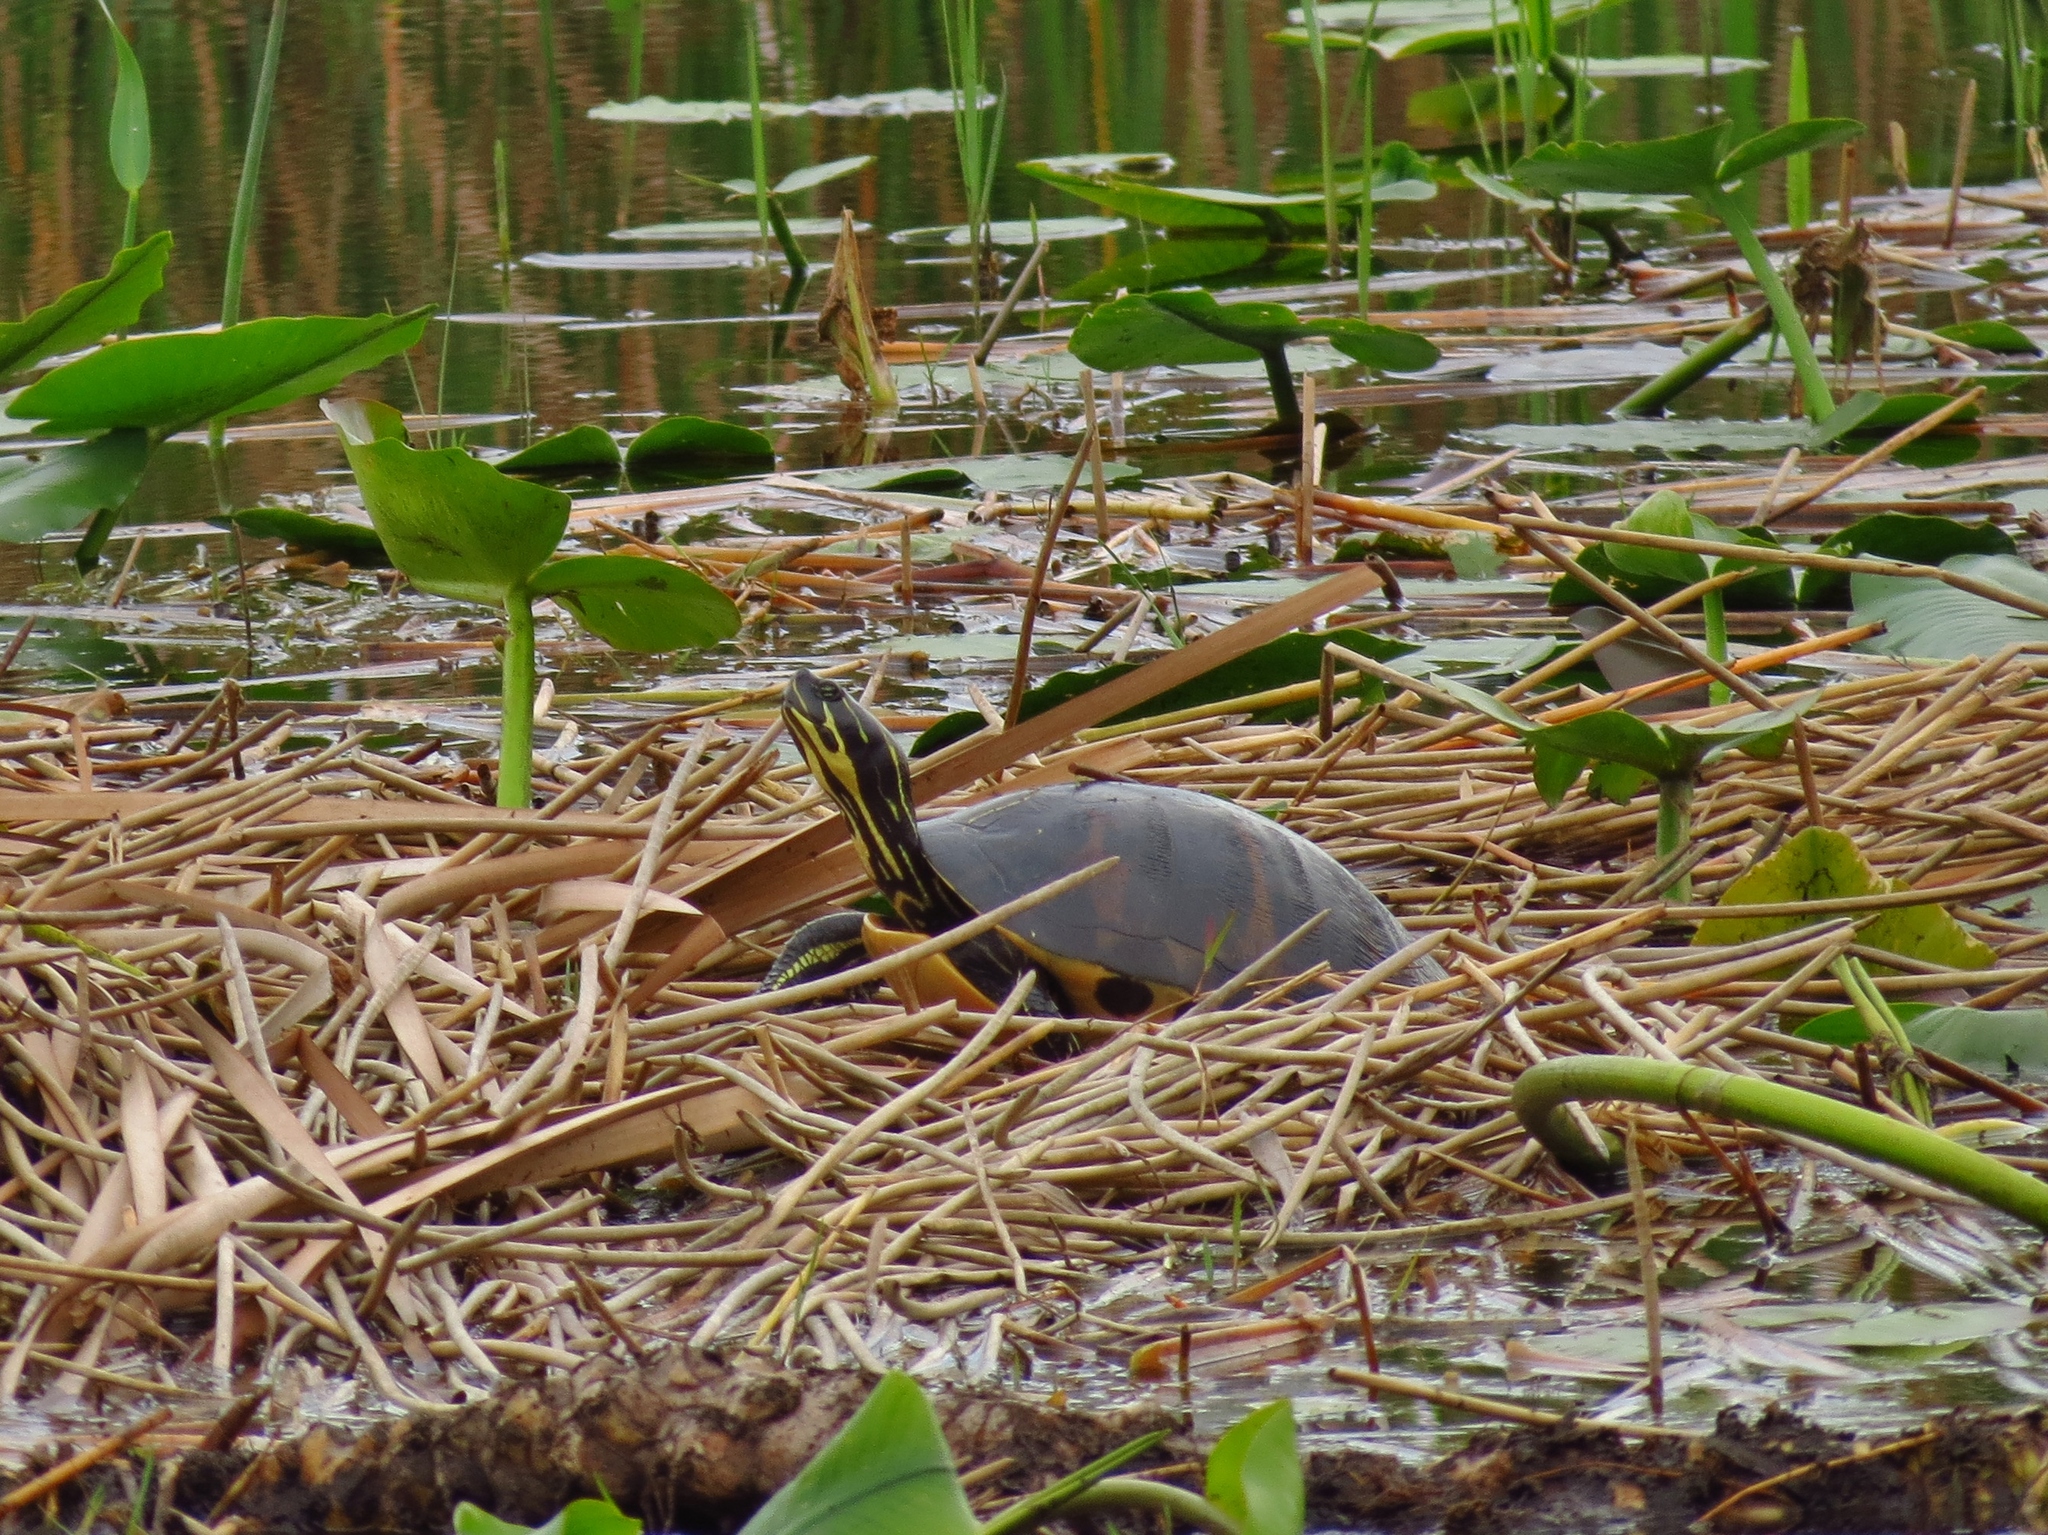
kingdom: Animalia
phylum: Chordata
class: Testudines
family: Emydidae
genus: Pseudemys
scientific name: Pseudemys nelsoni
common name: Florida red-bellied turtle
